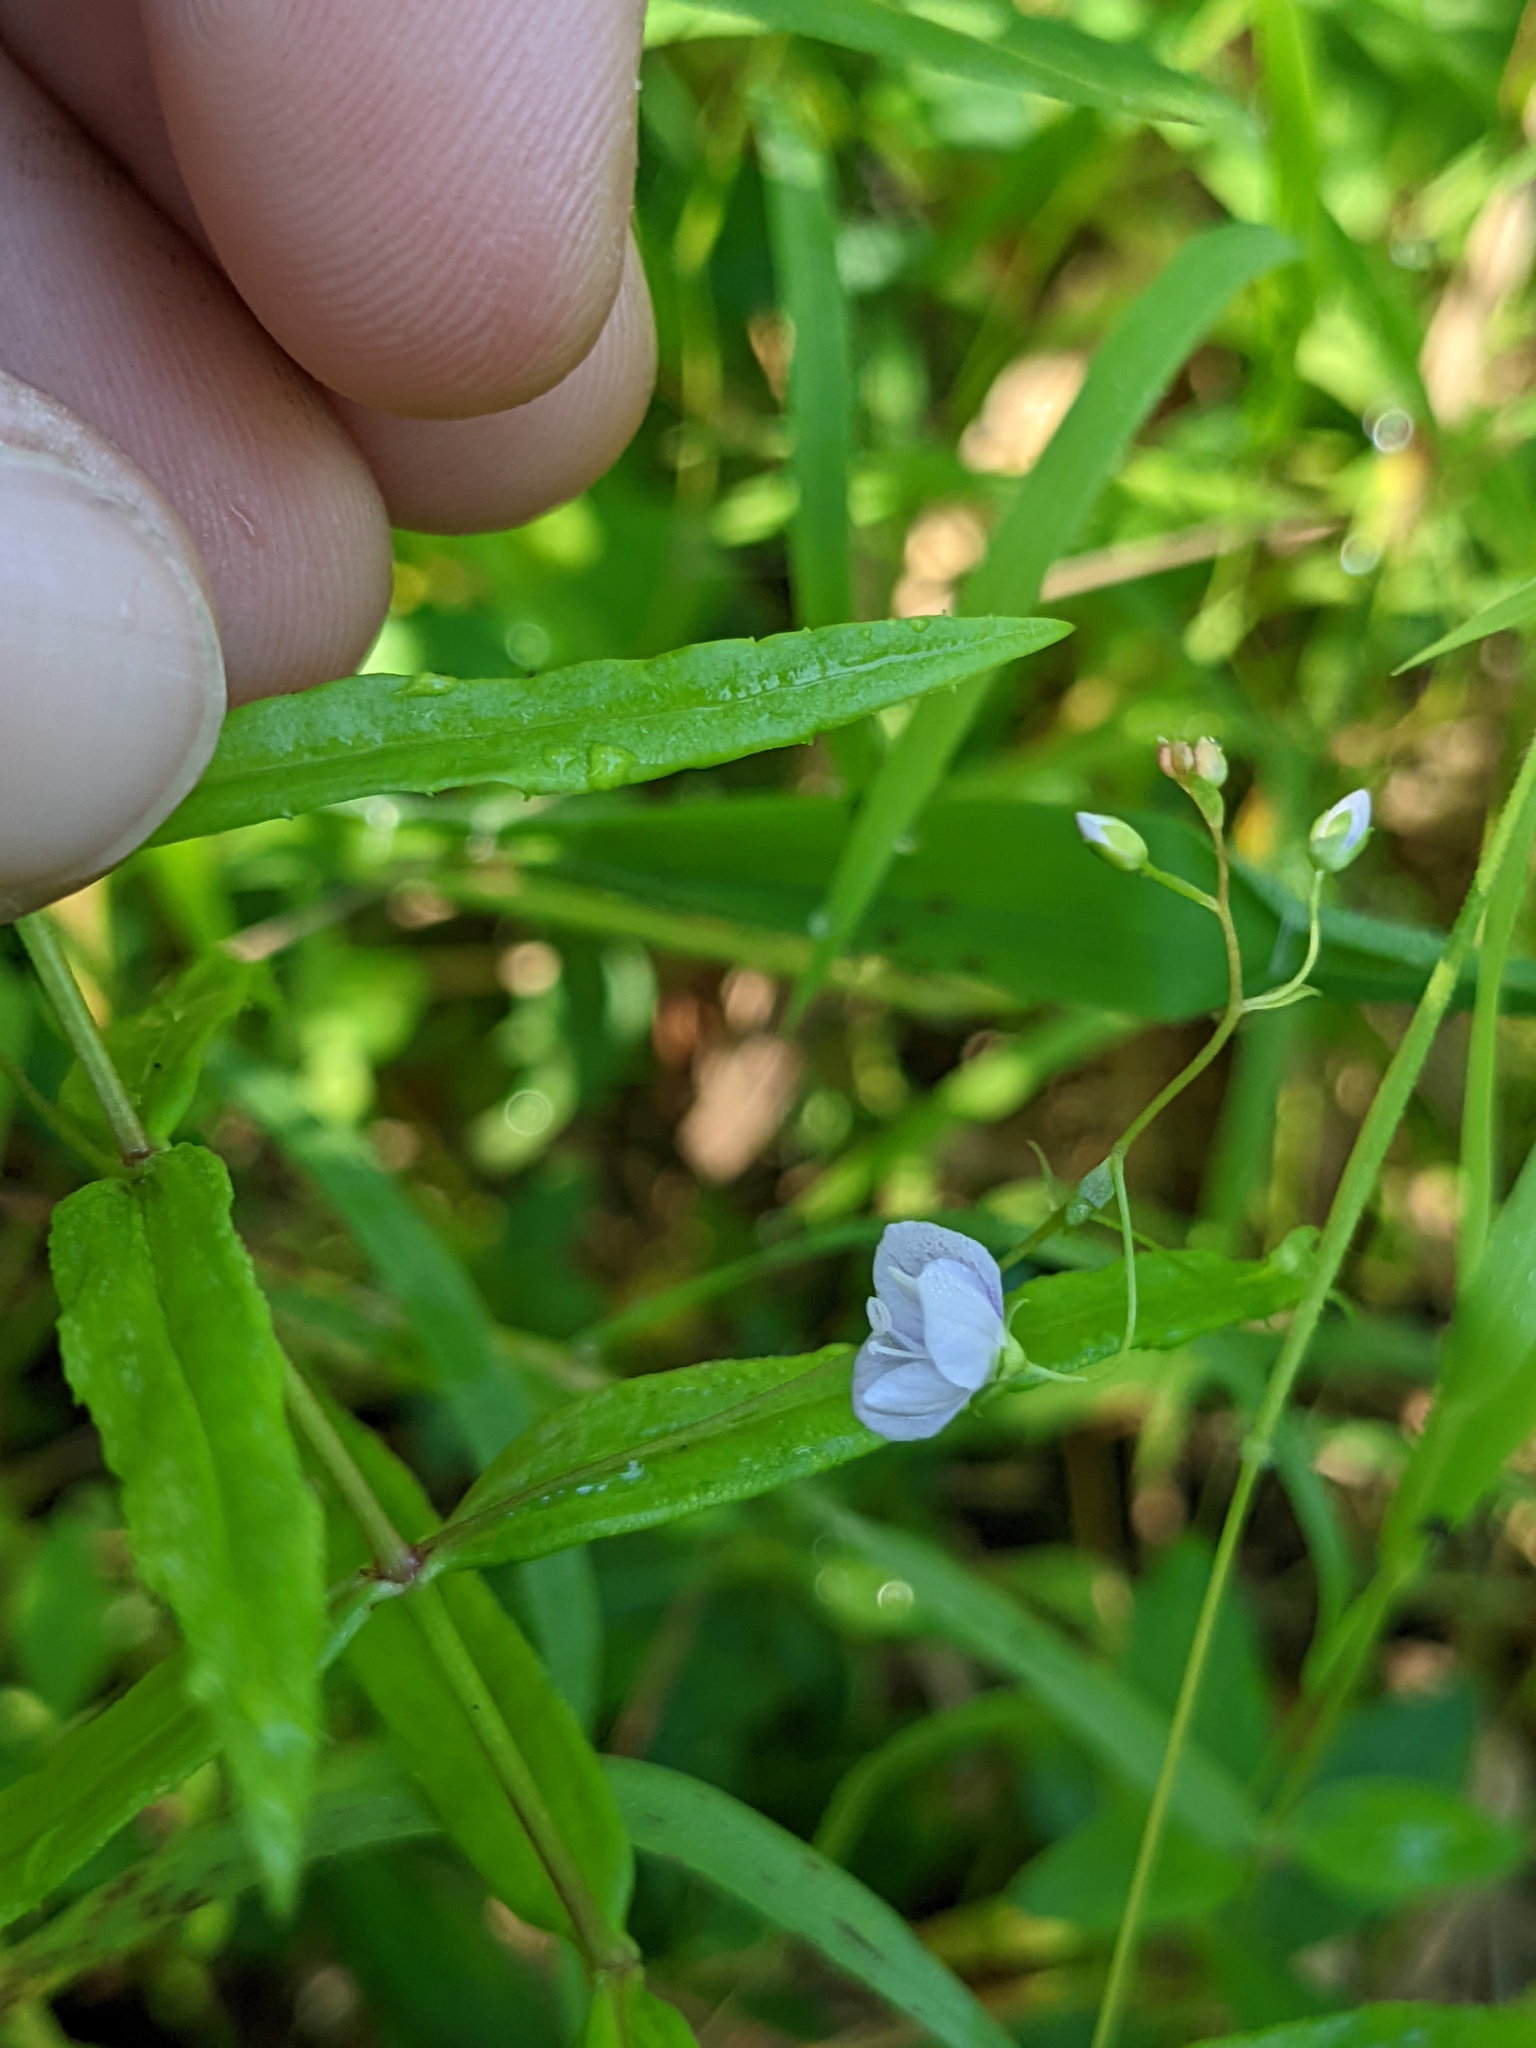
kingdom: Plantae
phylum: Tracheophyta
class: Magnoliopsida
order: Lamiales
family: Plantaginaceae
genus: Veronica
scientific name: Veronica scutellata
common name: Marsh speedwell
